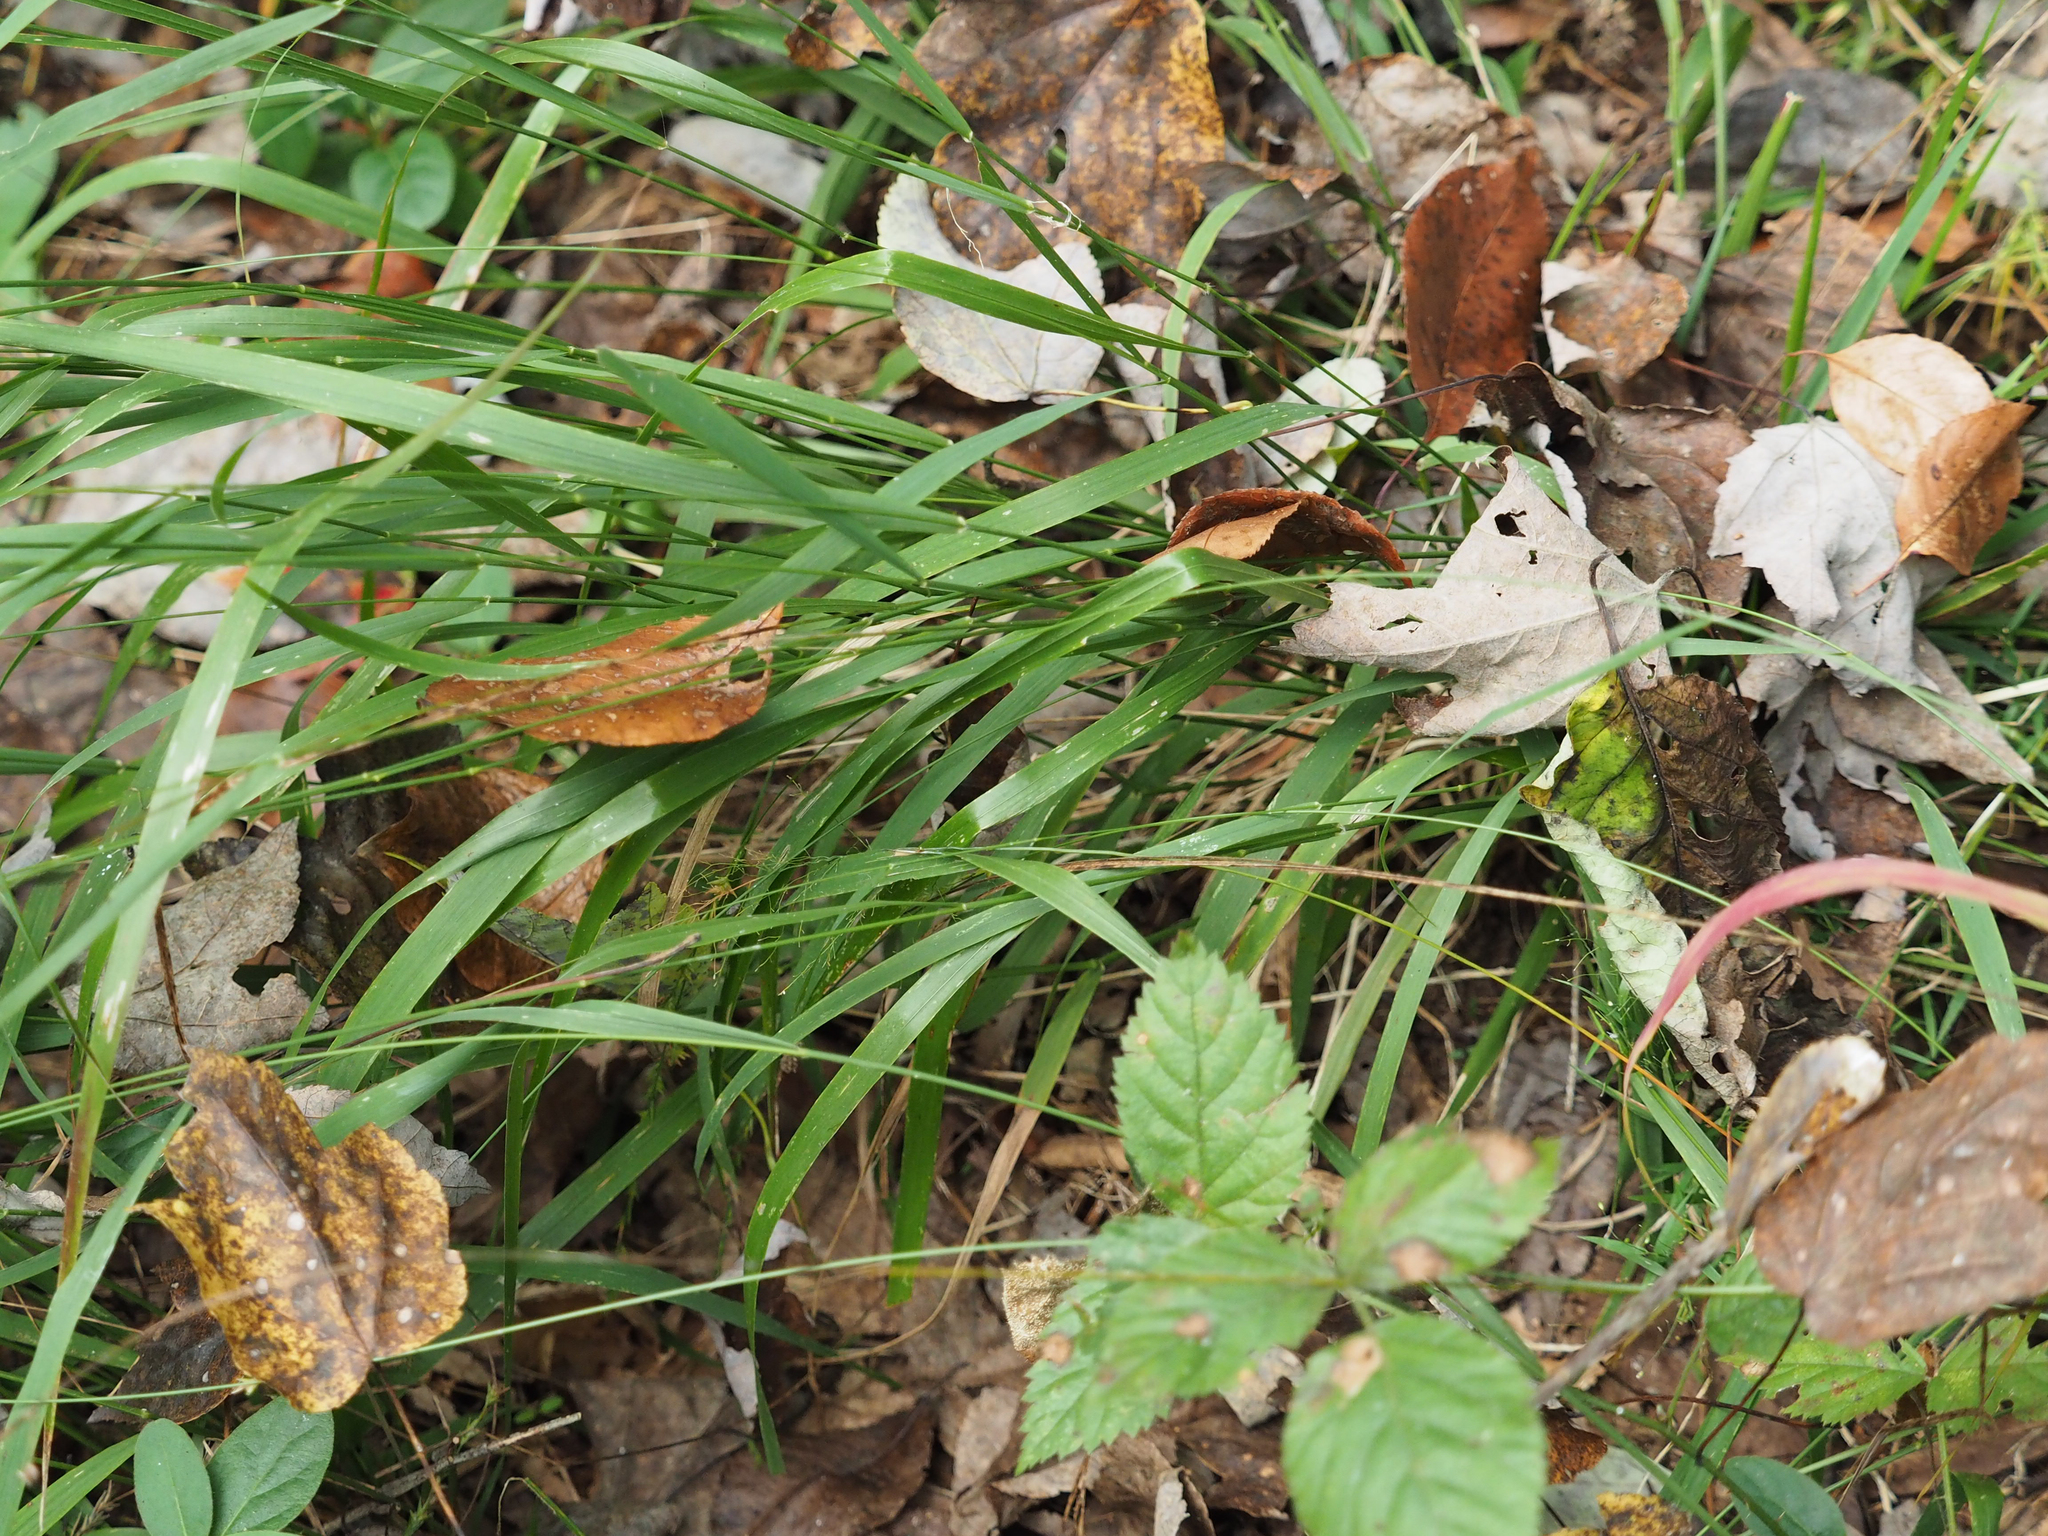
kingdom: Plantae
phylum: Tracheophyta
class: Liliopsida
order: Poales
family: Poaceae
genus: Chasmanthium
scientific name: Chasmanthium laxum
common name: Slender chasmanthium
